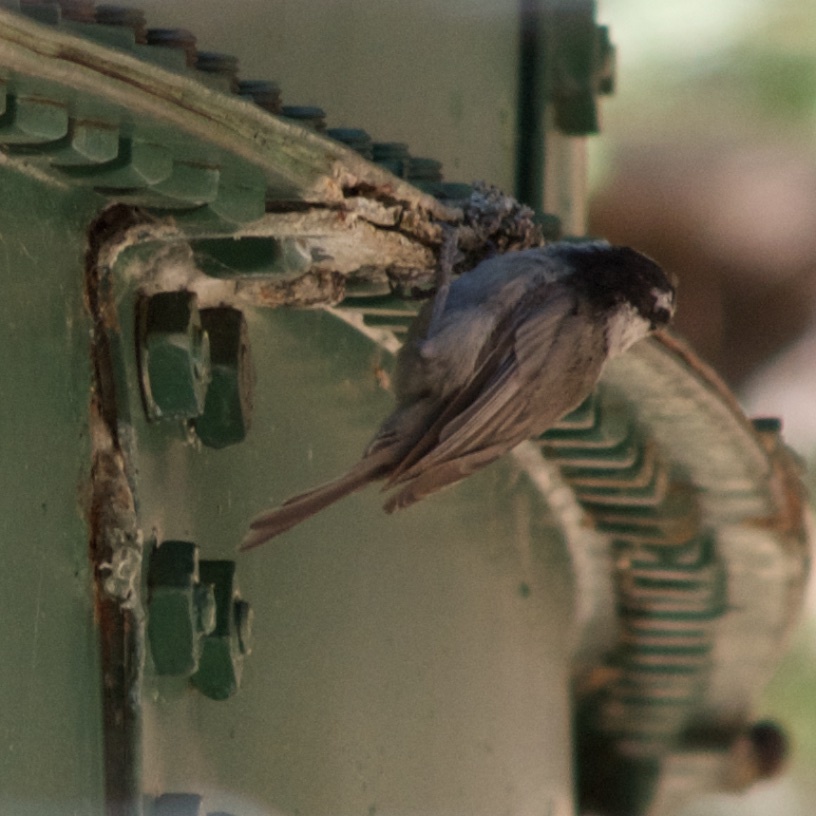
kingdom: Animalia
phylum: Chordata
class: Aves
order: Passeriformes
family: Paridae
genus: Poecile
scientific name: Poecile gambeli
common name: Mountain chickadee
